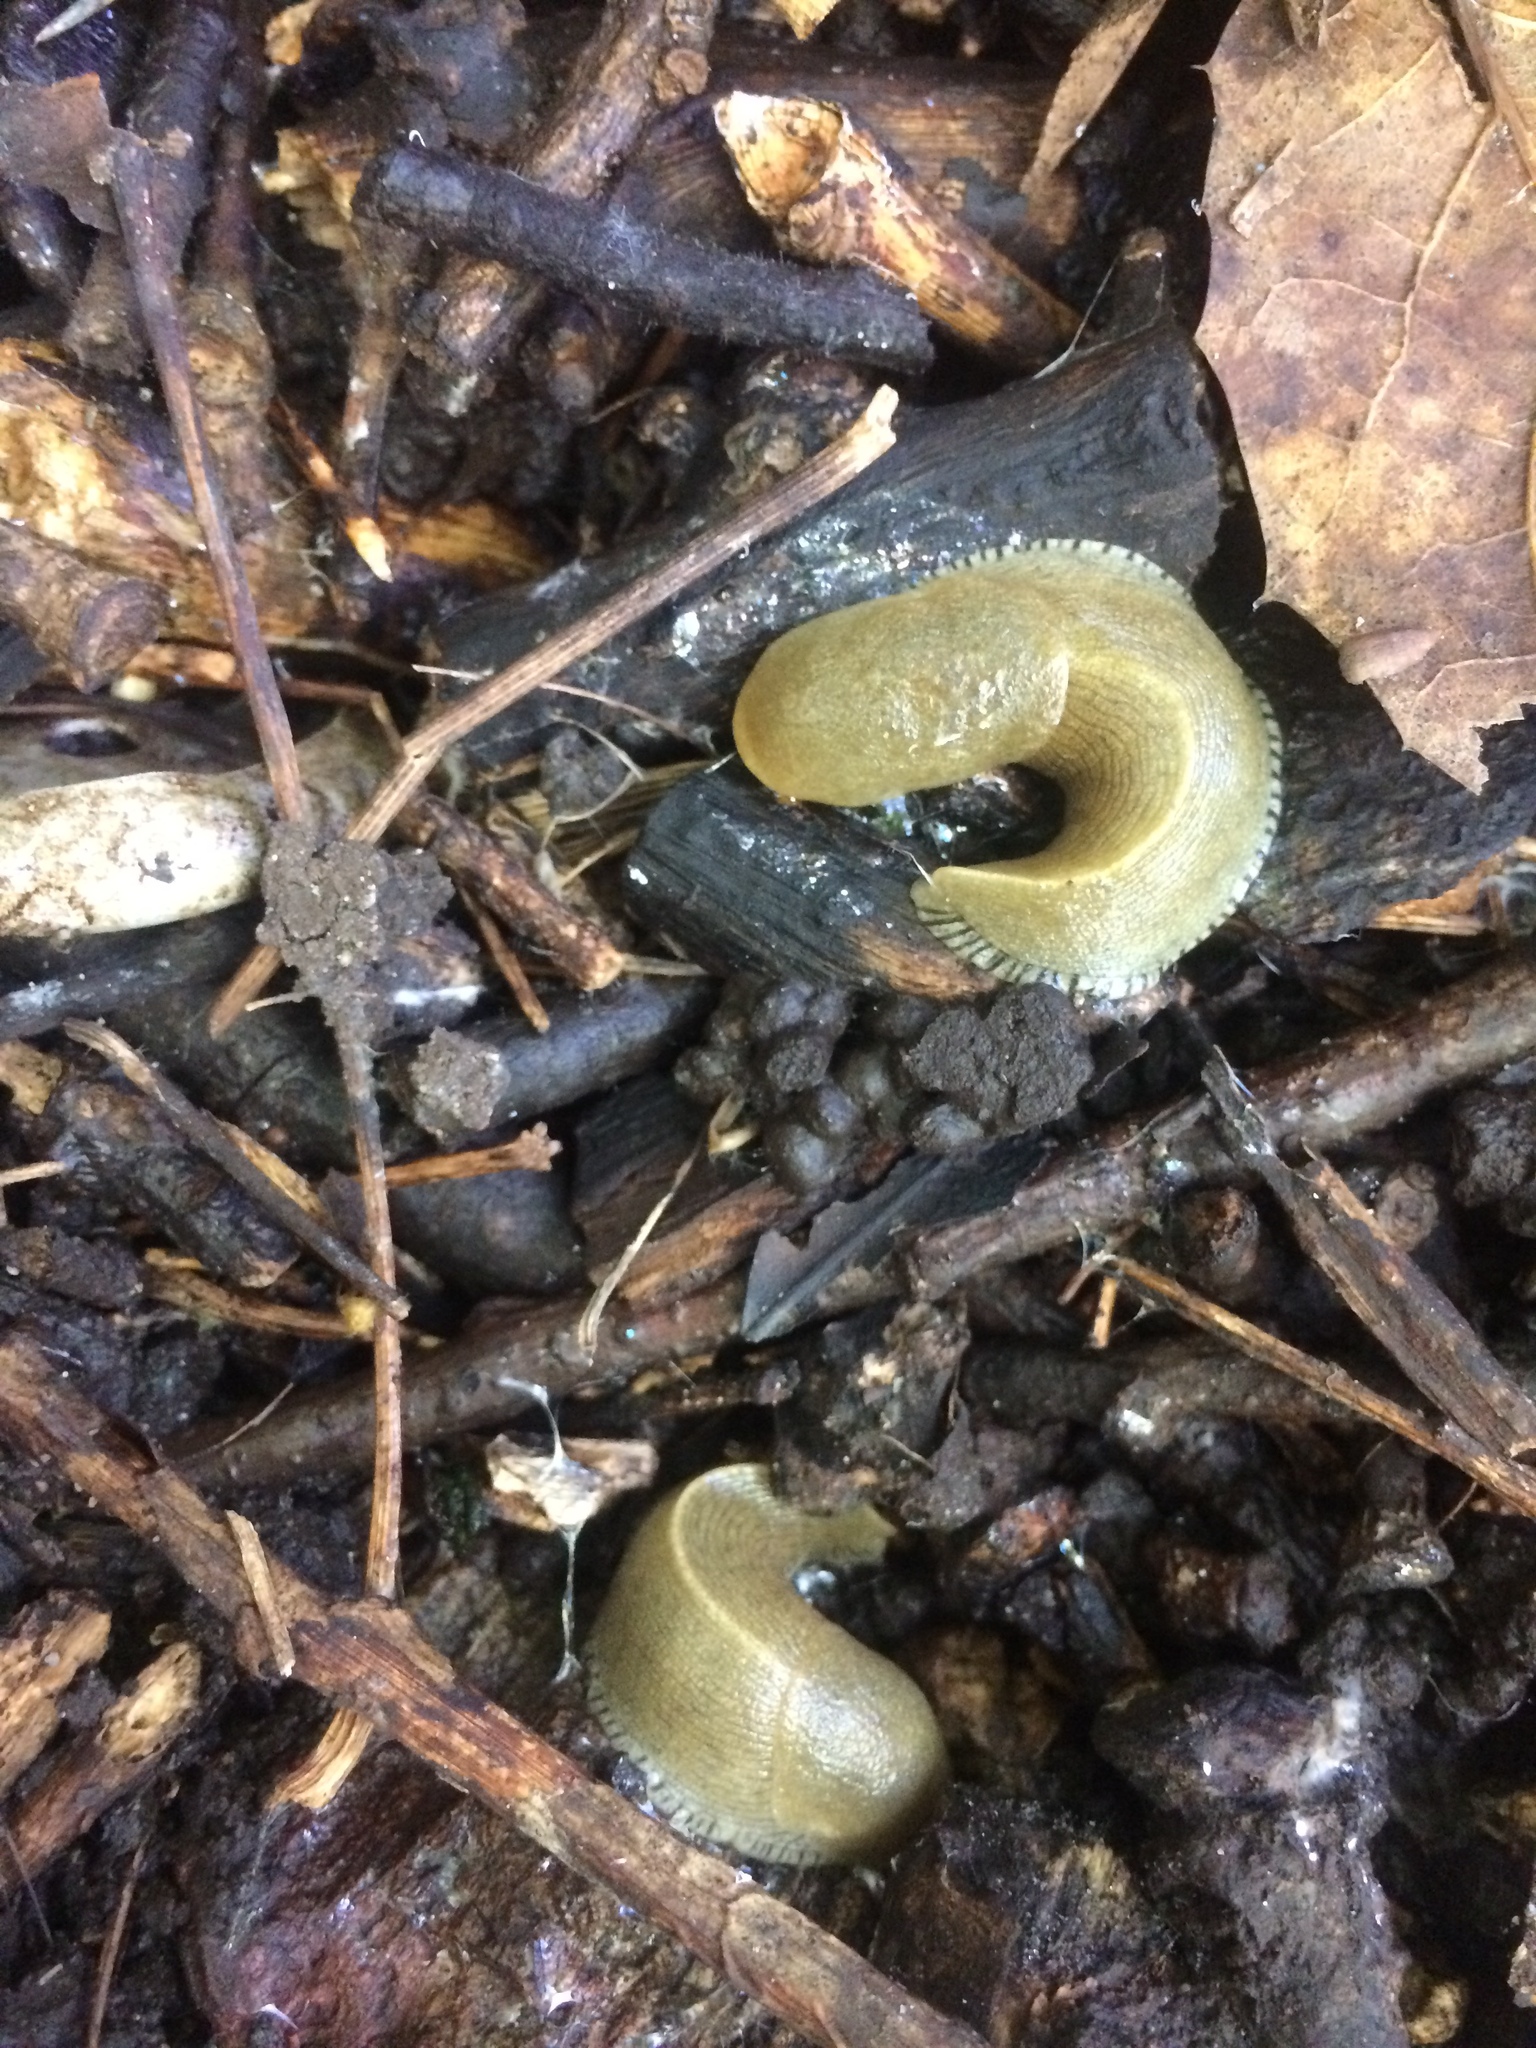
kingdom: Animalia
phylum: Mollusca
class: Gastropoda
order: Stylommatophora
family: Ariolimacidae
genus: Ariolimax
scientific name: Ariolimax buttoni
